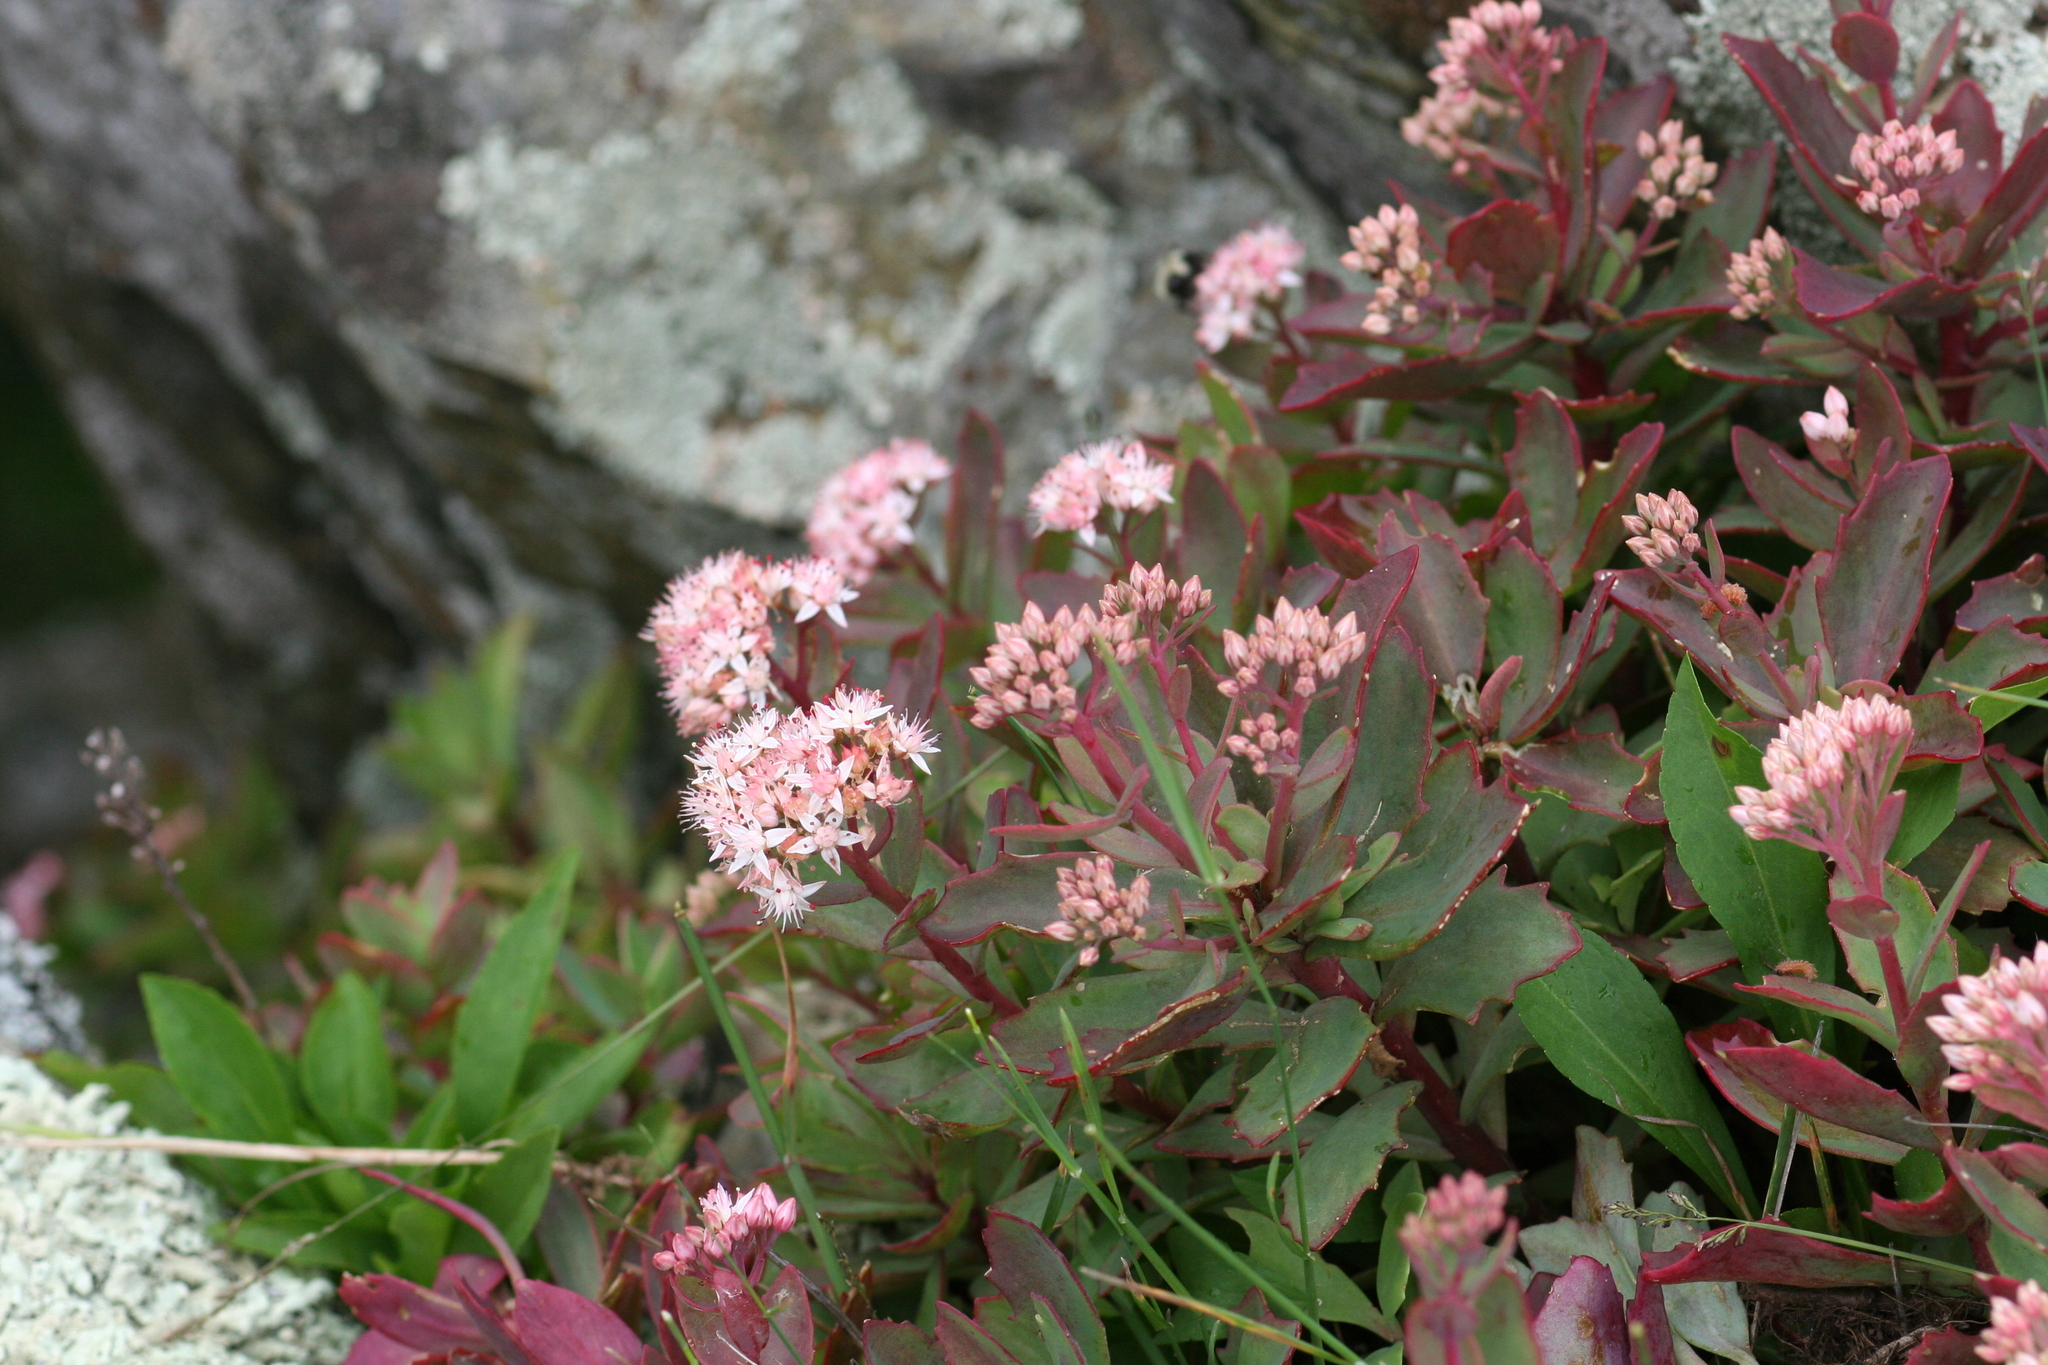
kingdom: Plantae
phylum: Tracheophyta
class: Magnoliopsida
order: Saxifragales
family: Crassulaceae
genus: Hylotelephium
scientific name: Hylotelephium telephioides
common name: Allegheny stonecrop
